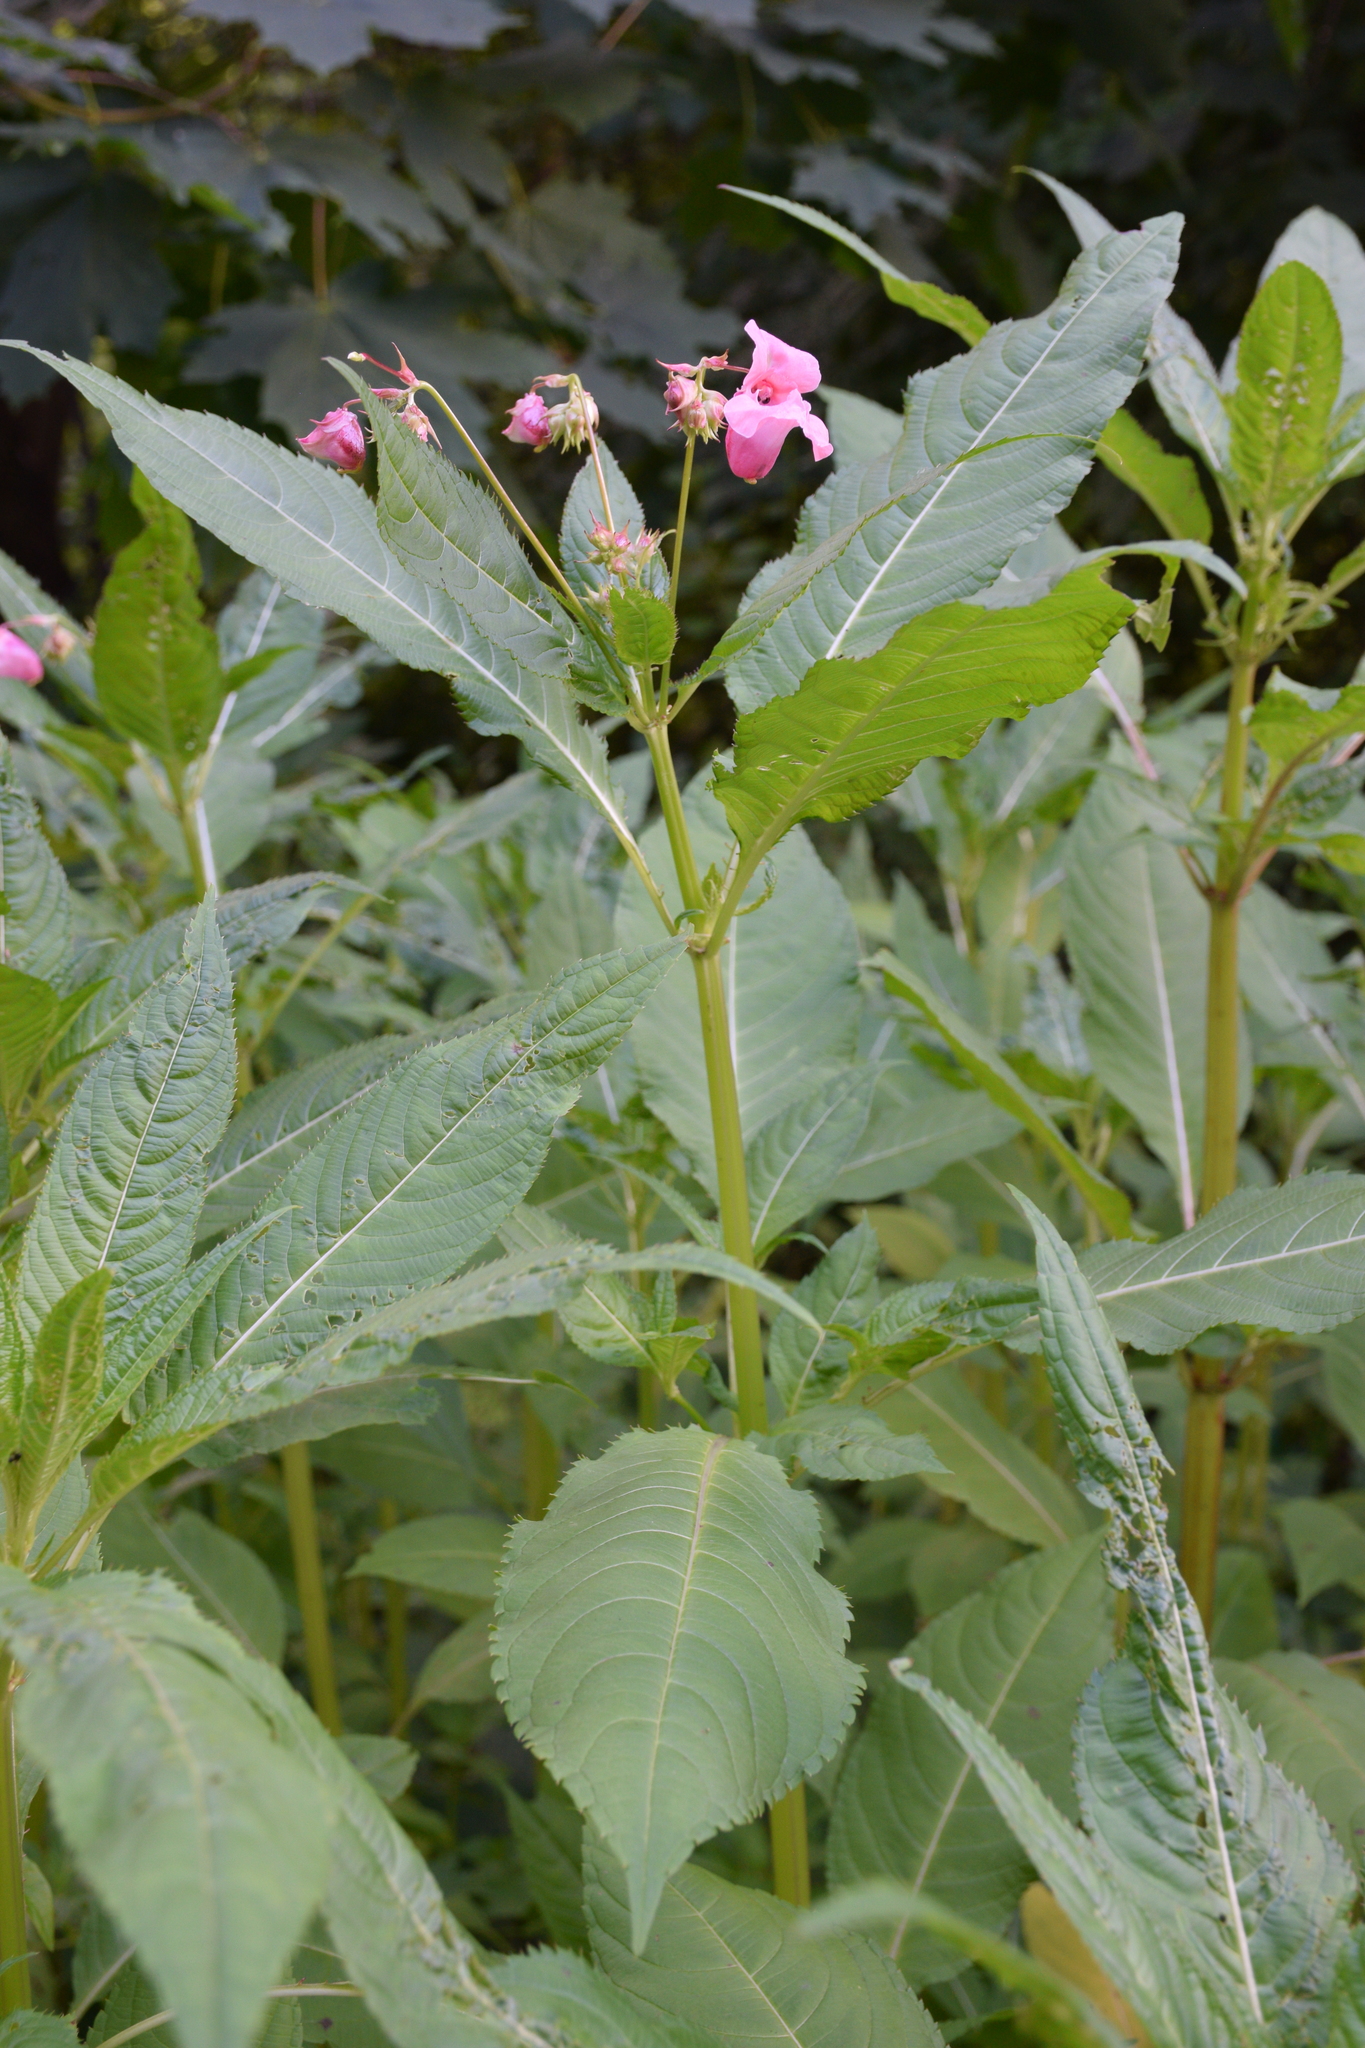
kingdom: Plantae
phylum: Tracheophyta
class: Magnoliopsida
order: Ericales
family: Balsaminaceae
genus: Impatiens
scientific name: Impatiens glandulifera
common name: Himalayan balsam
